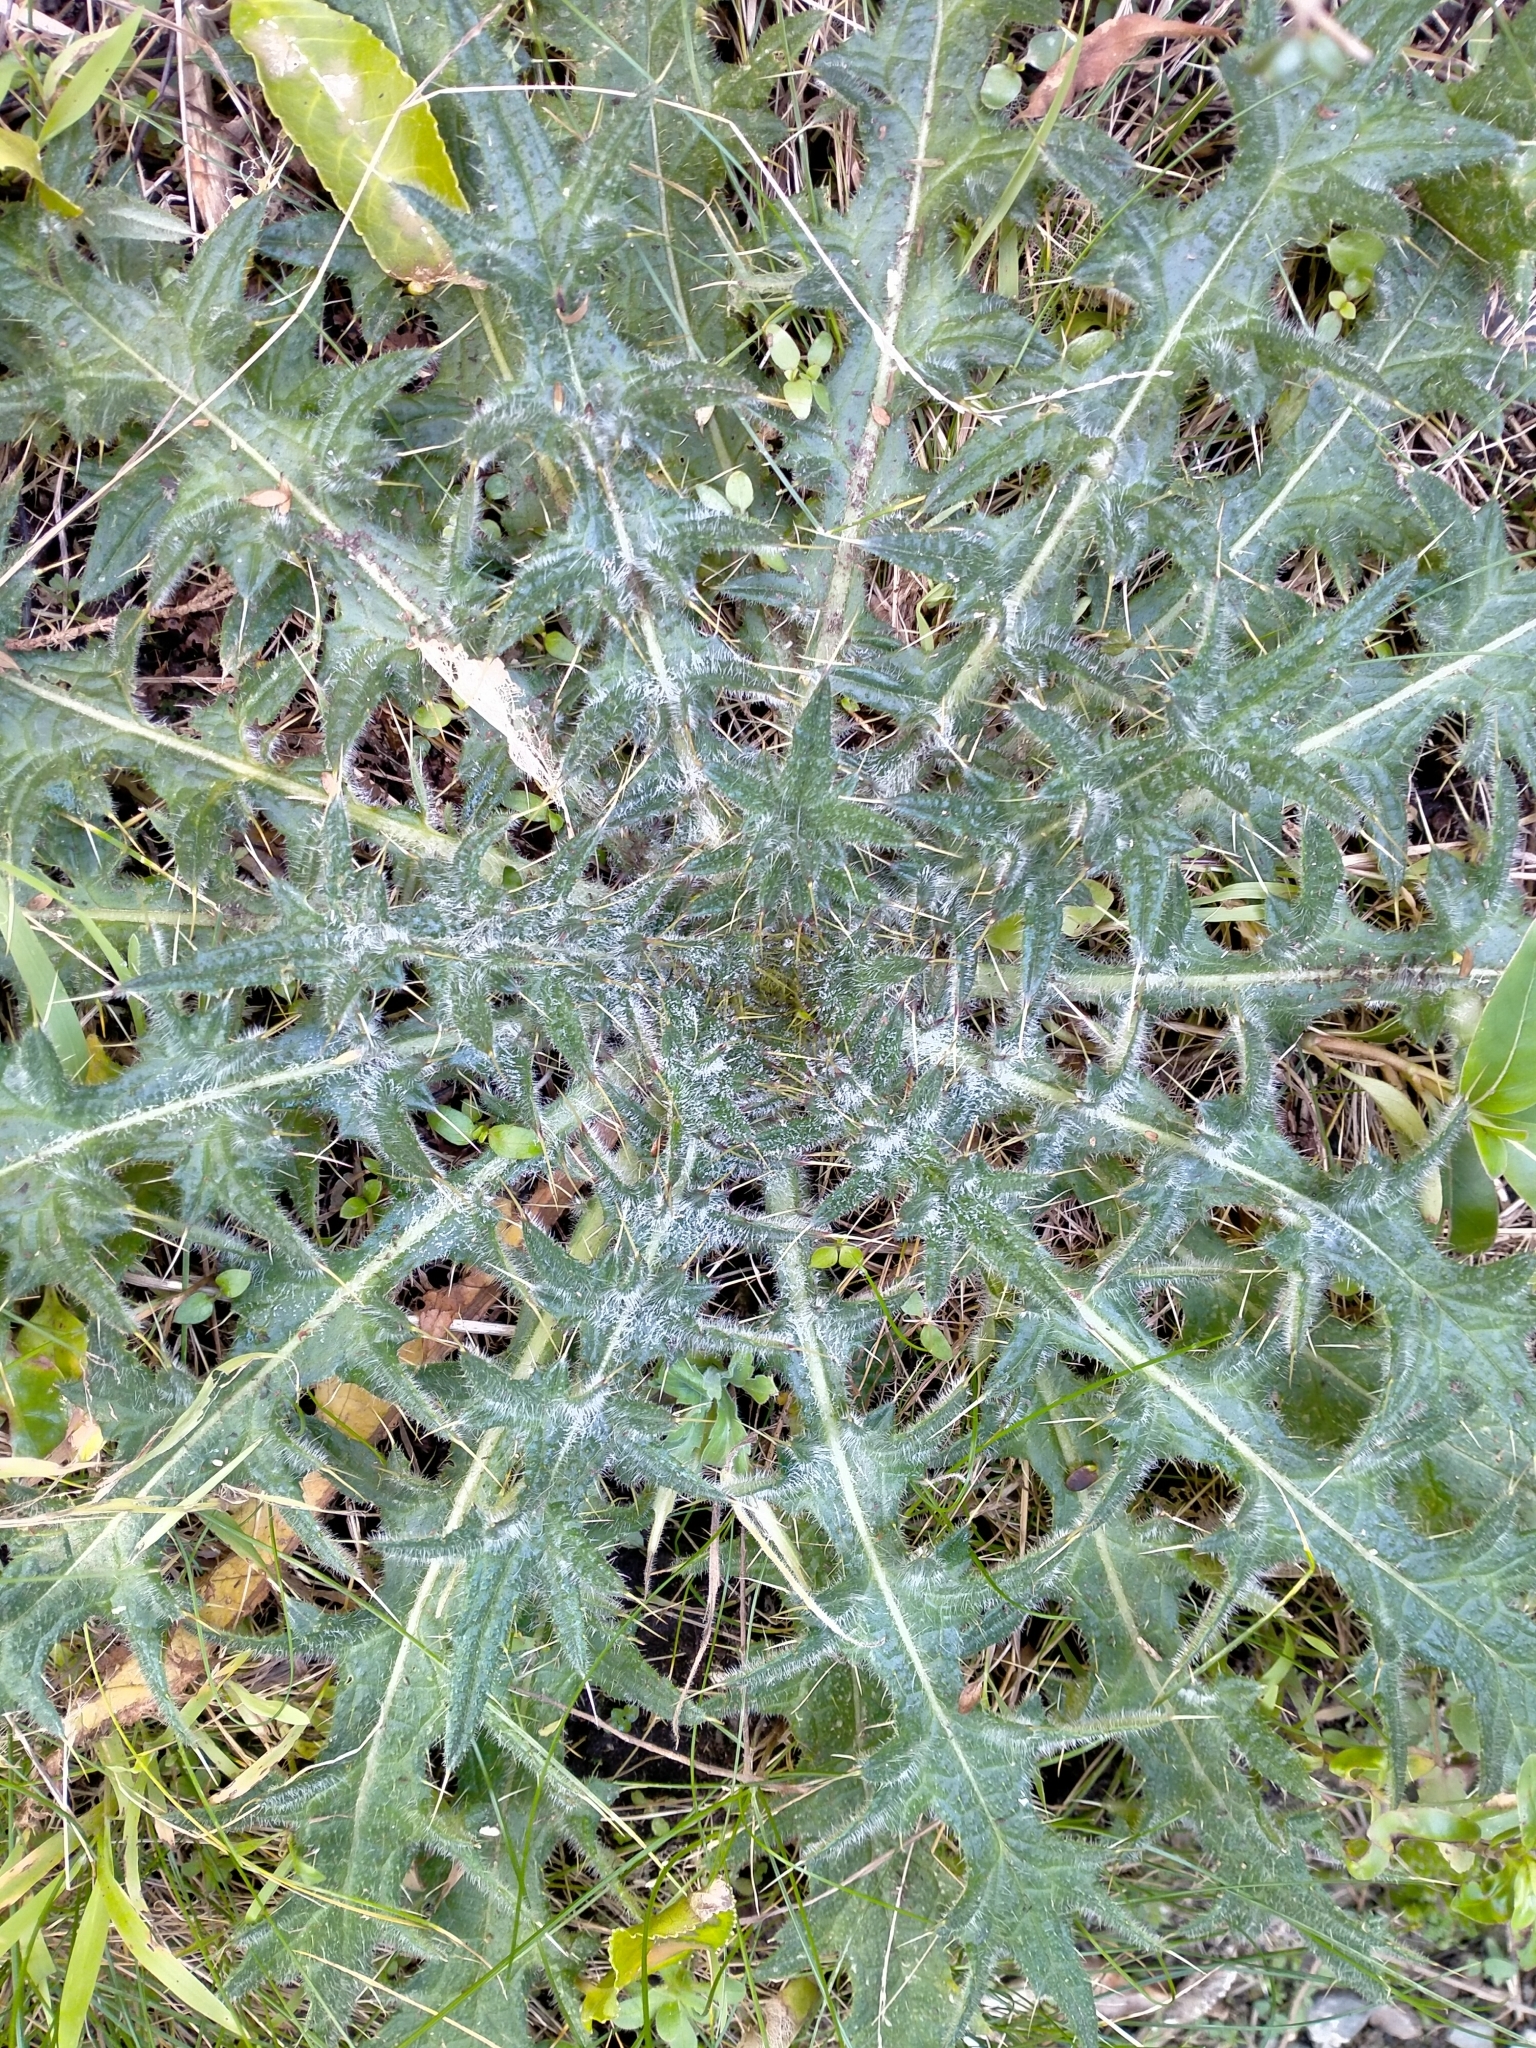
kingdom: Plantae
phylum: Tracheophyta
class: Magnoliopsida
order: Asterales
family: Asteraceae
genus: Cirsium
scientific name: Cirsium vulgare
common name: Bull thistle
